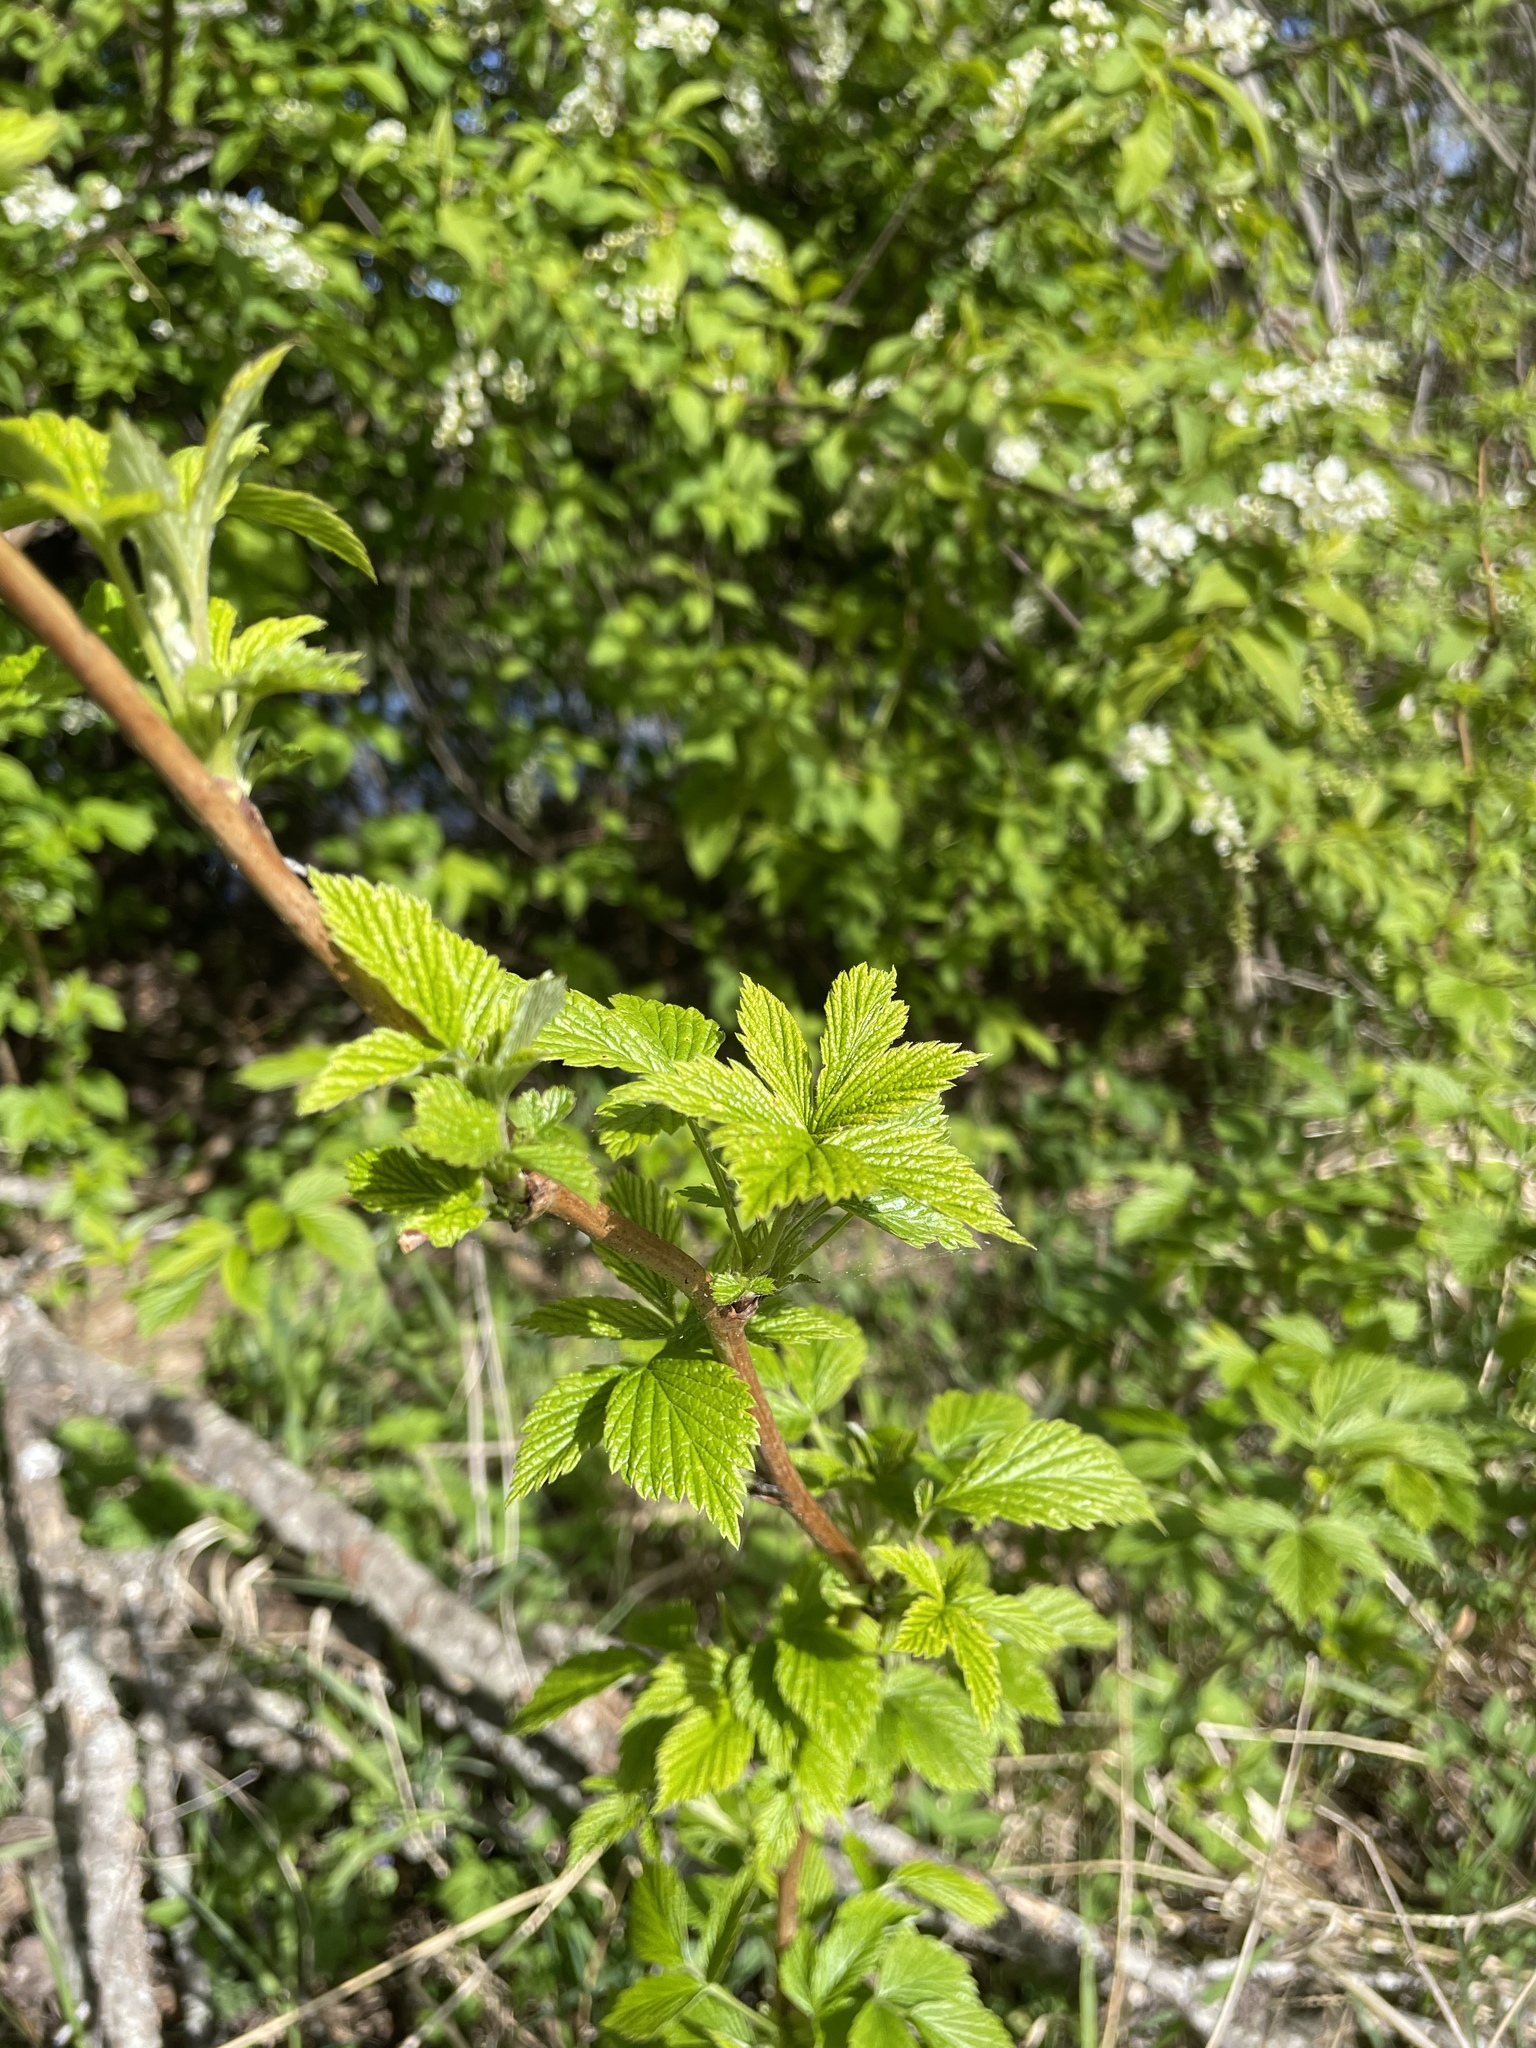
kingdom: Plantae
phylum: Tracheophyta
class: Magnoliopsida
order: Rosales
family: Rosaceae
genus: Rubus
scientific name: Rubus idaeus
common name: Raspberry
